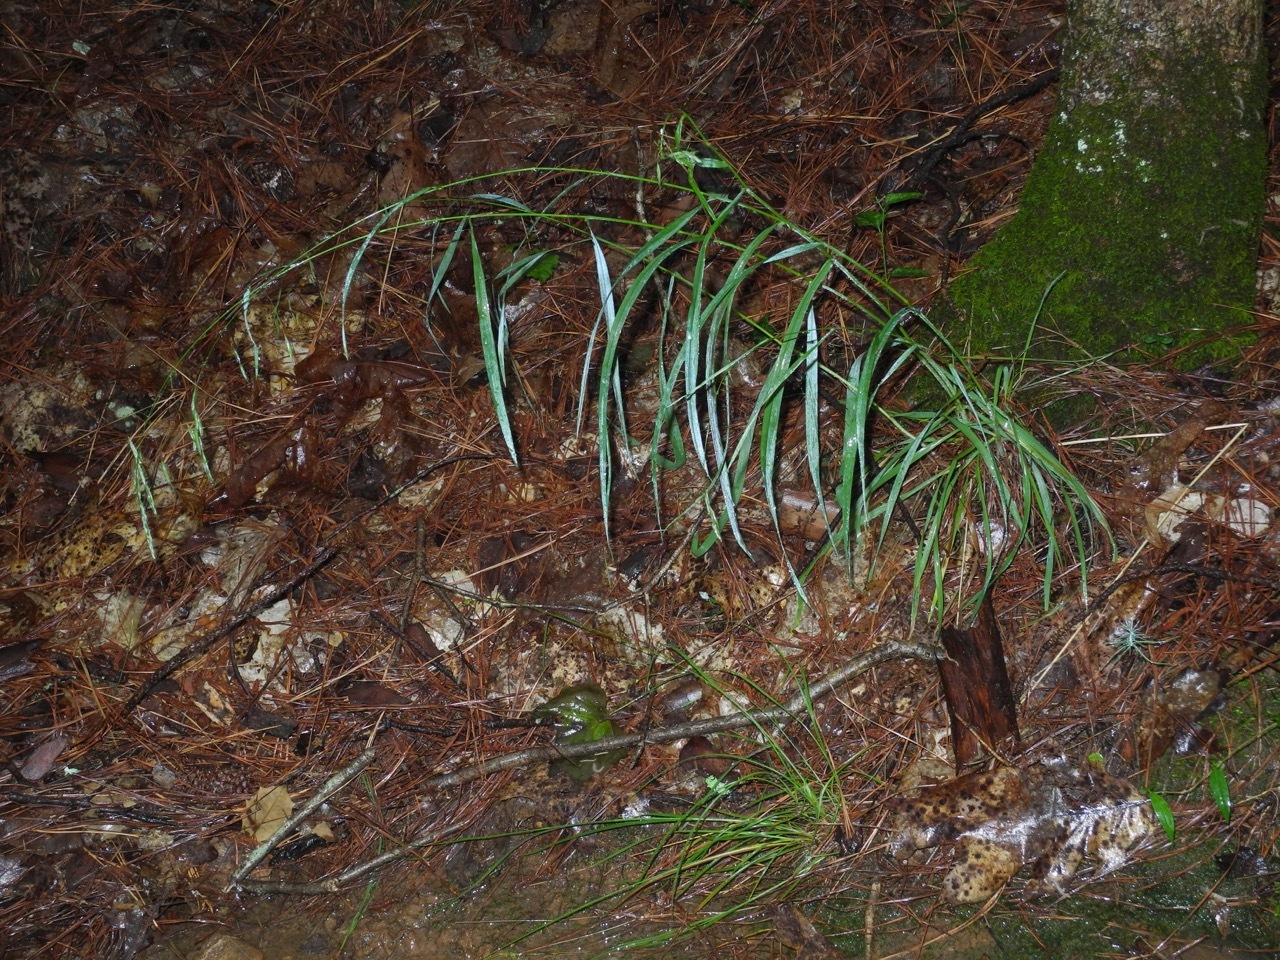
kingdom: Plantae
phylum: Tracheophyta
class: Liliopsida
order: Poales
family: Poaceae
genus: Bromus
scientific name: Bromus pubescens
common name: Hairy wood brome grass
